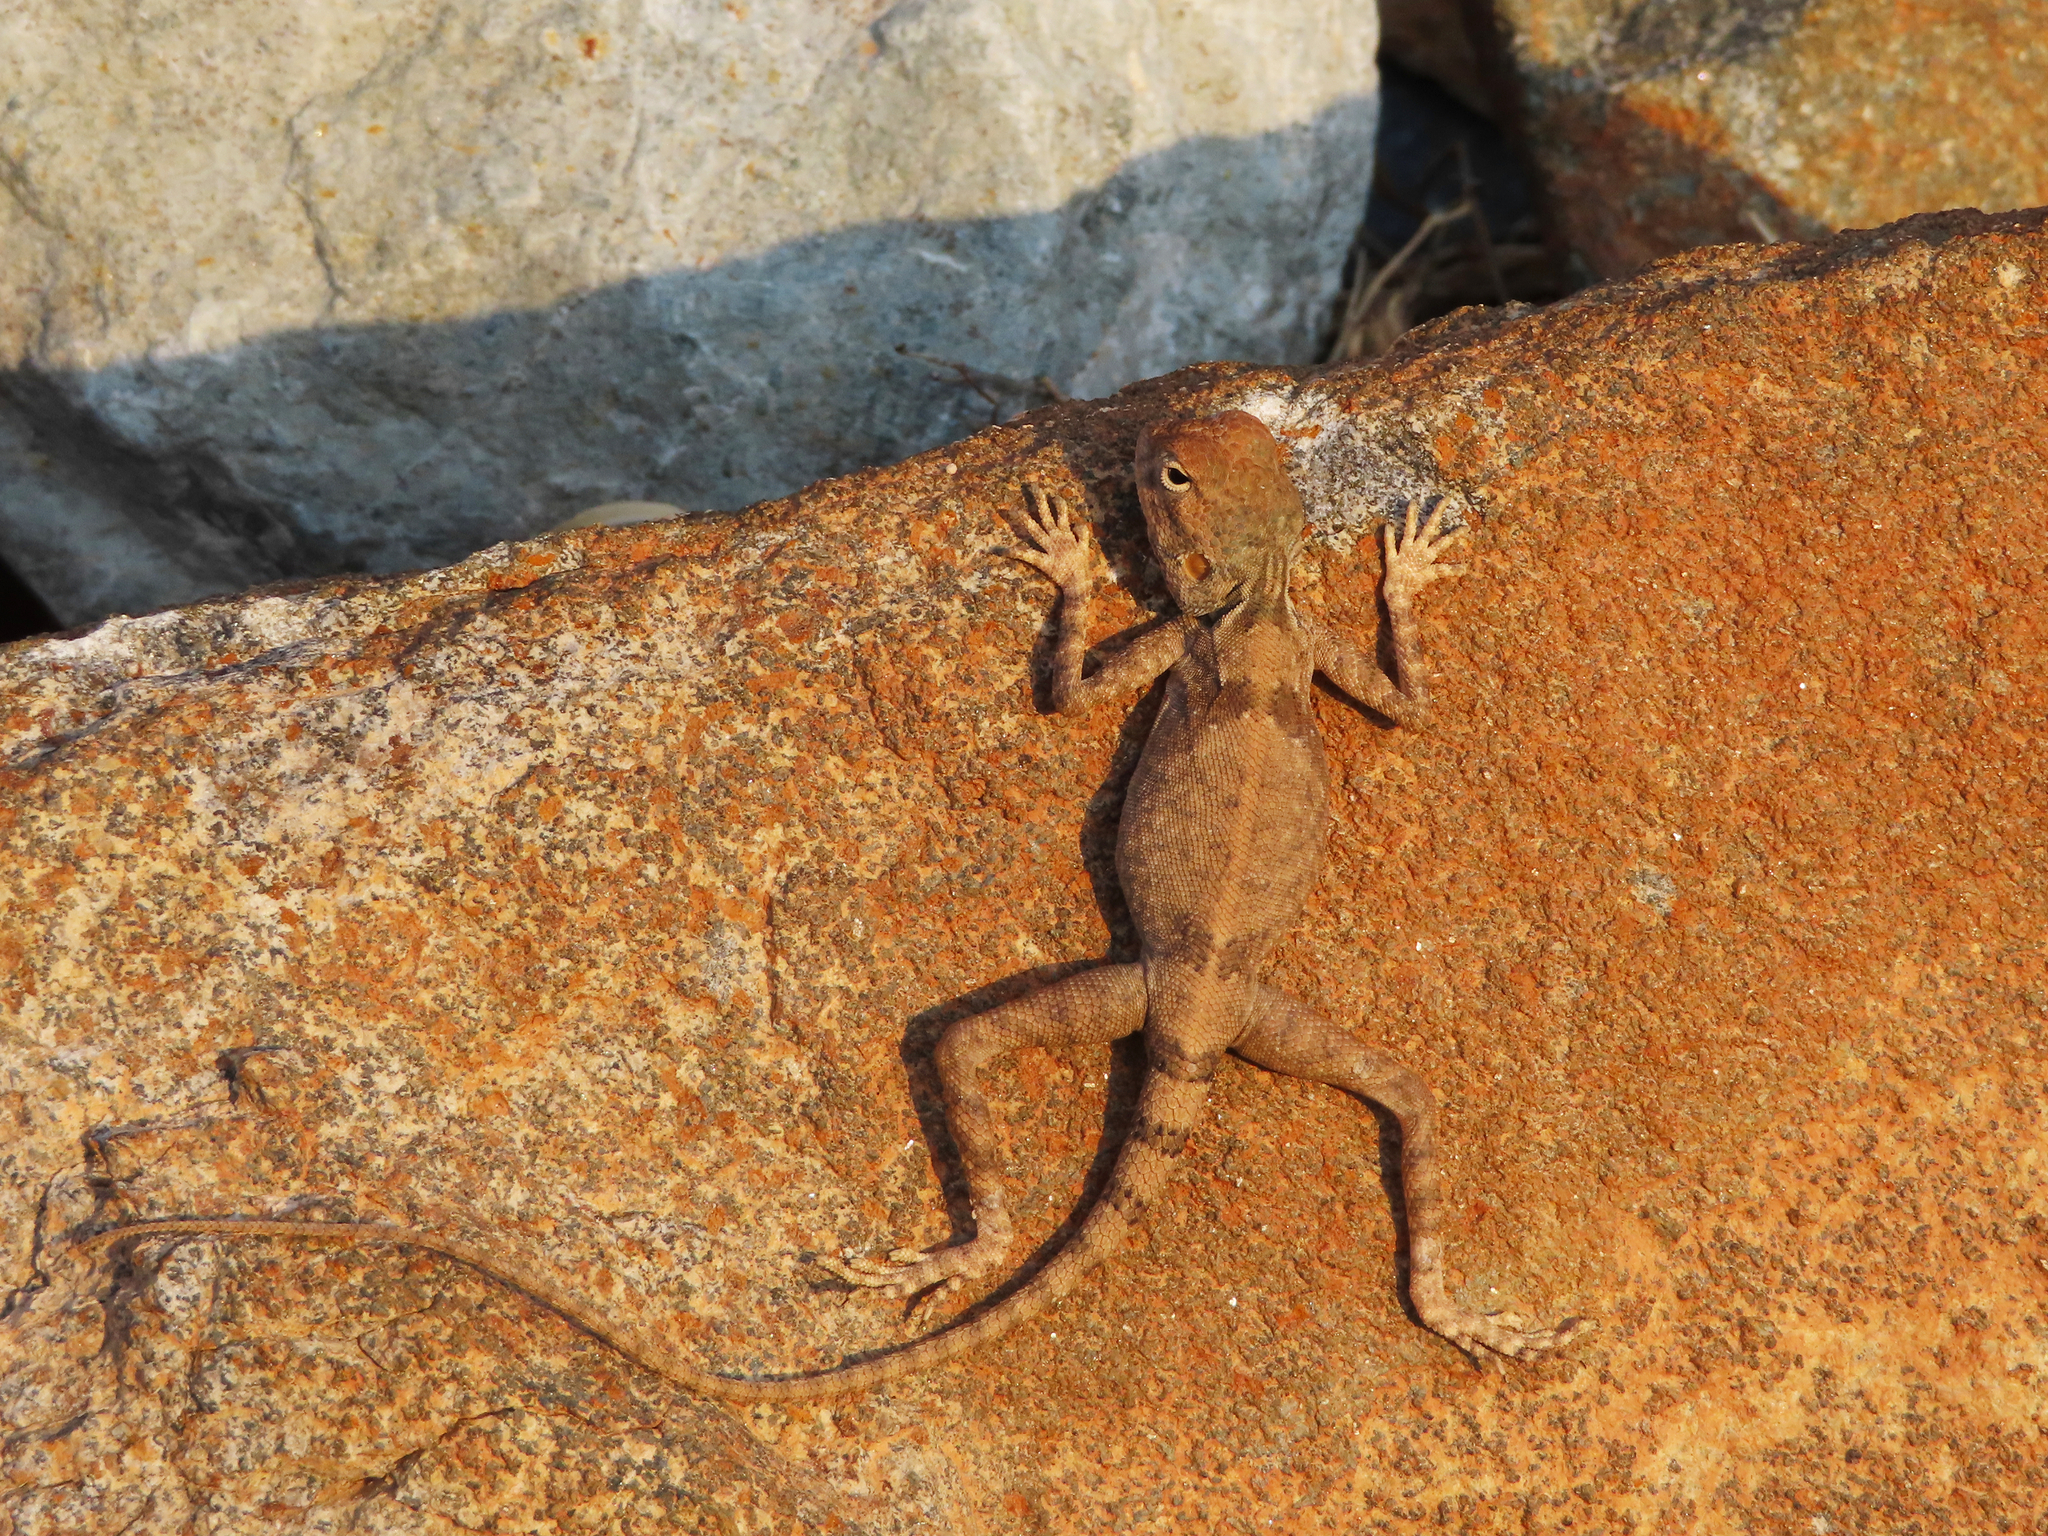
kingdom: Animalia
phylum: Chordata
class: Squamata
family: Agamidae
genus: Pseudotrapelus
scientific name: Pseudotrapelus jensvindumi
